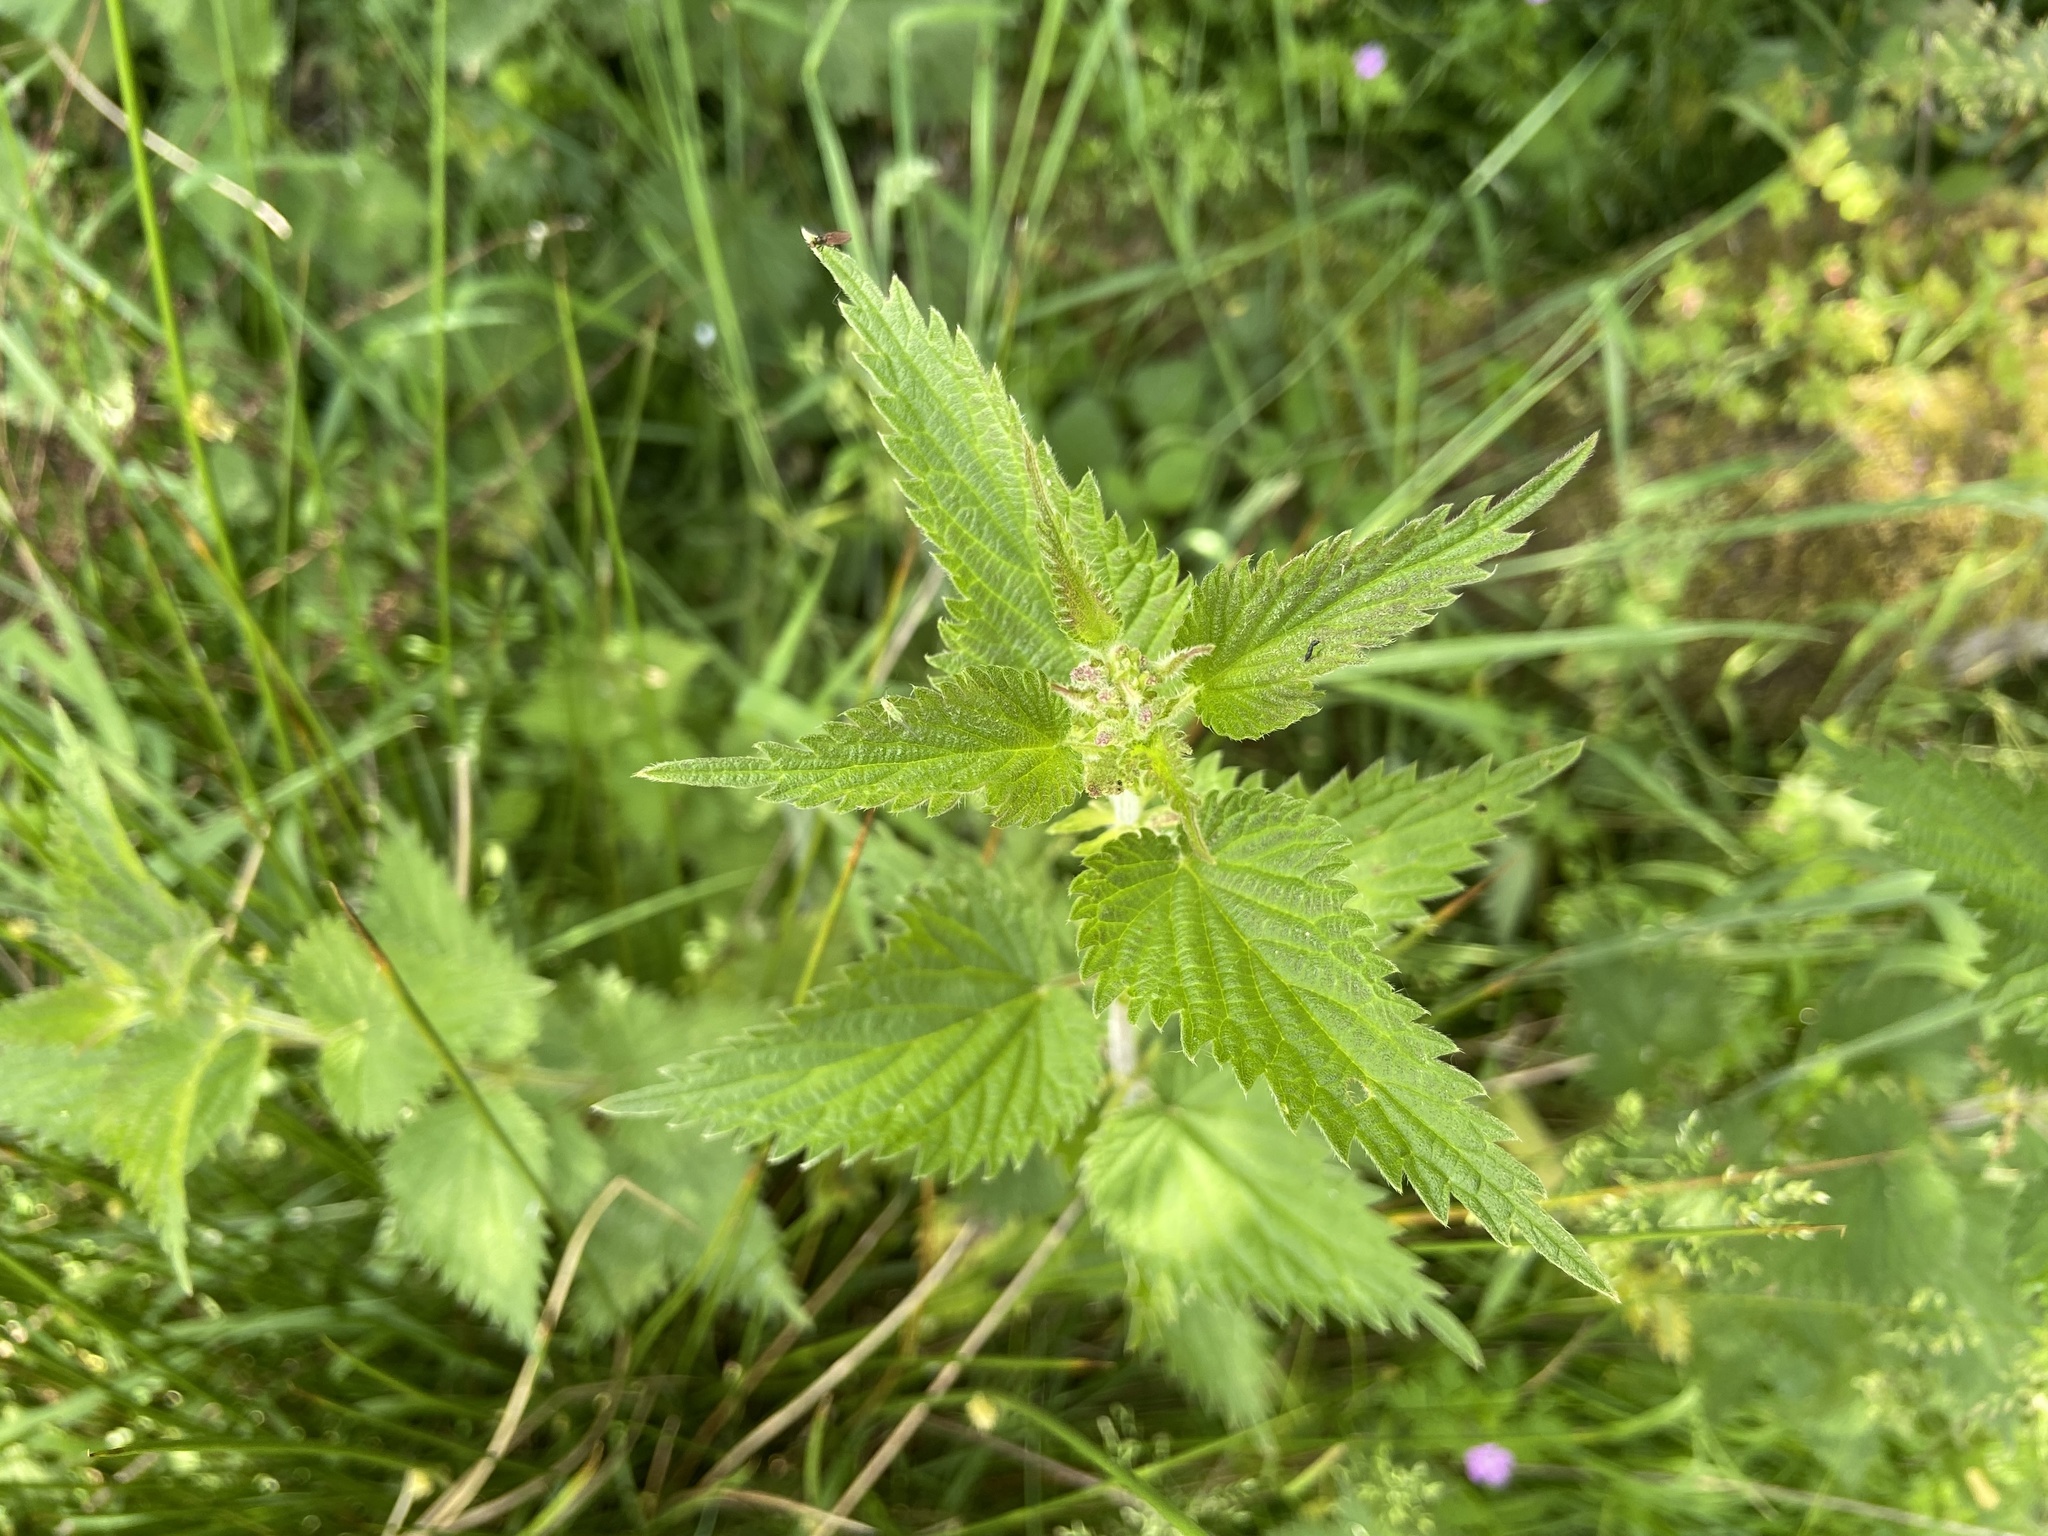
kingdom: Plantae
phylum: Tracheophyta
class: Magnoliopsida
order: Rosales
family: Urticaceae
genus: Urtica
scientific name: Urtica dioica
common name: Common nettle
